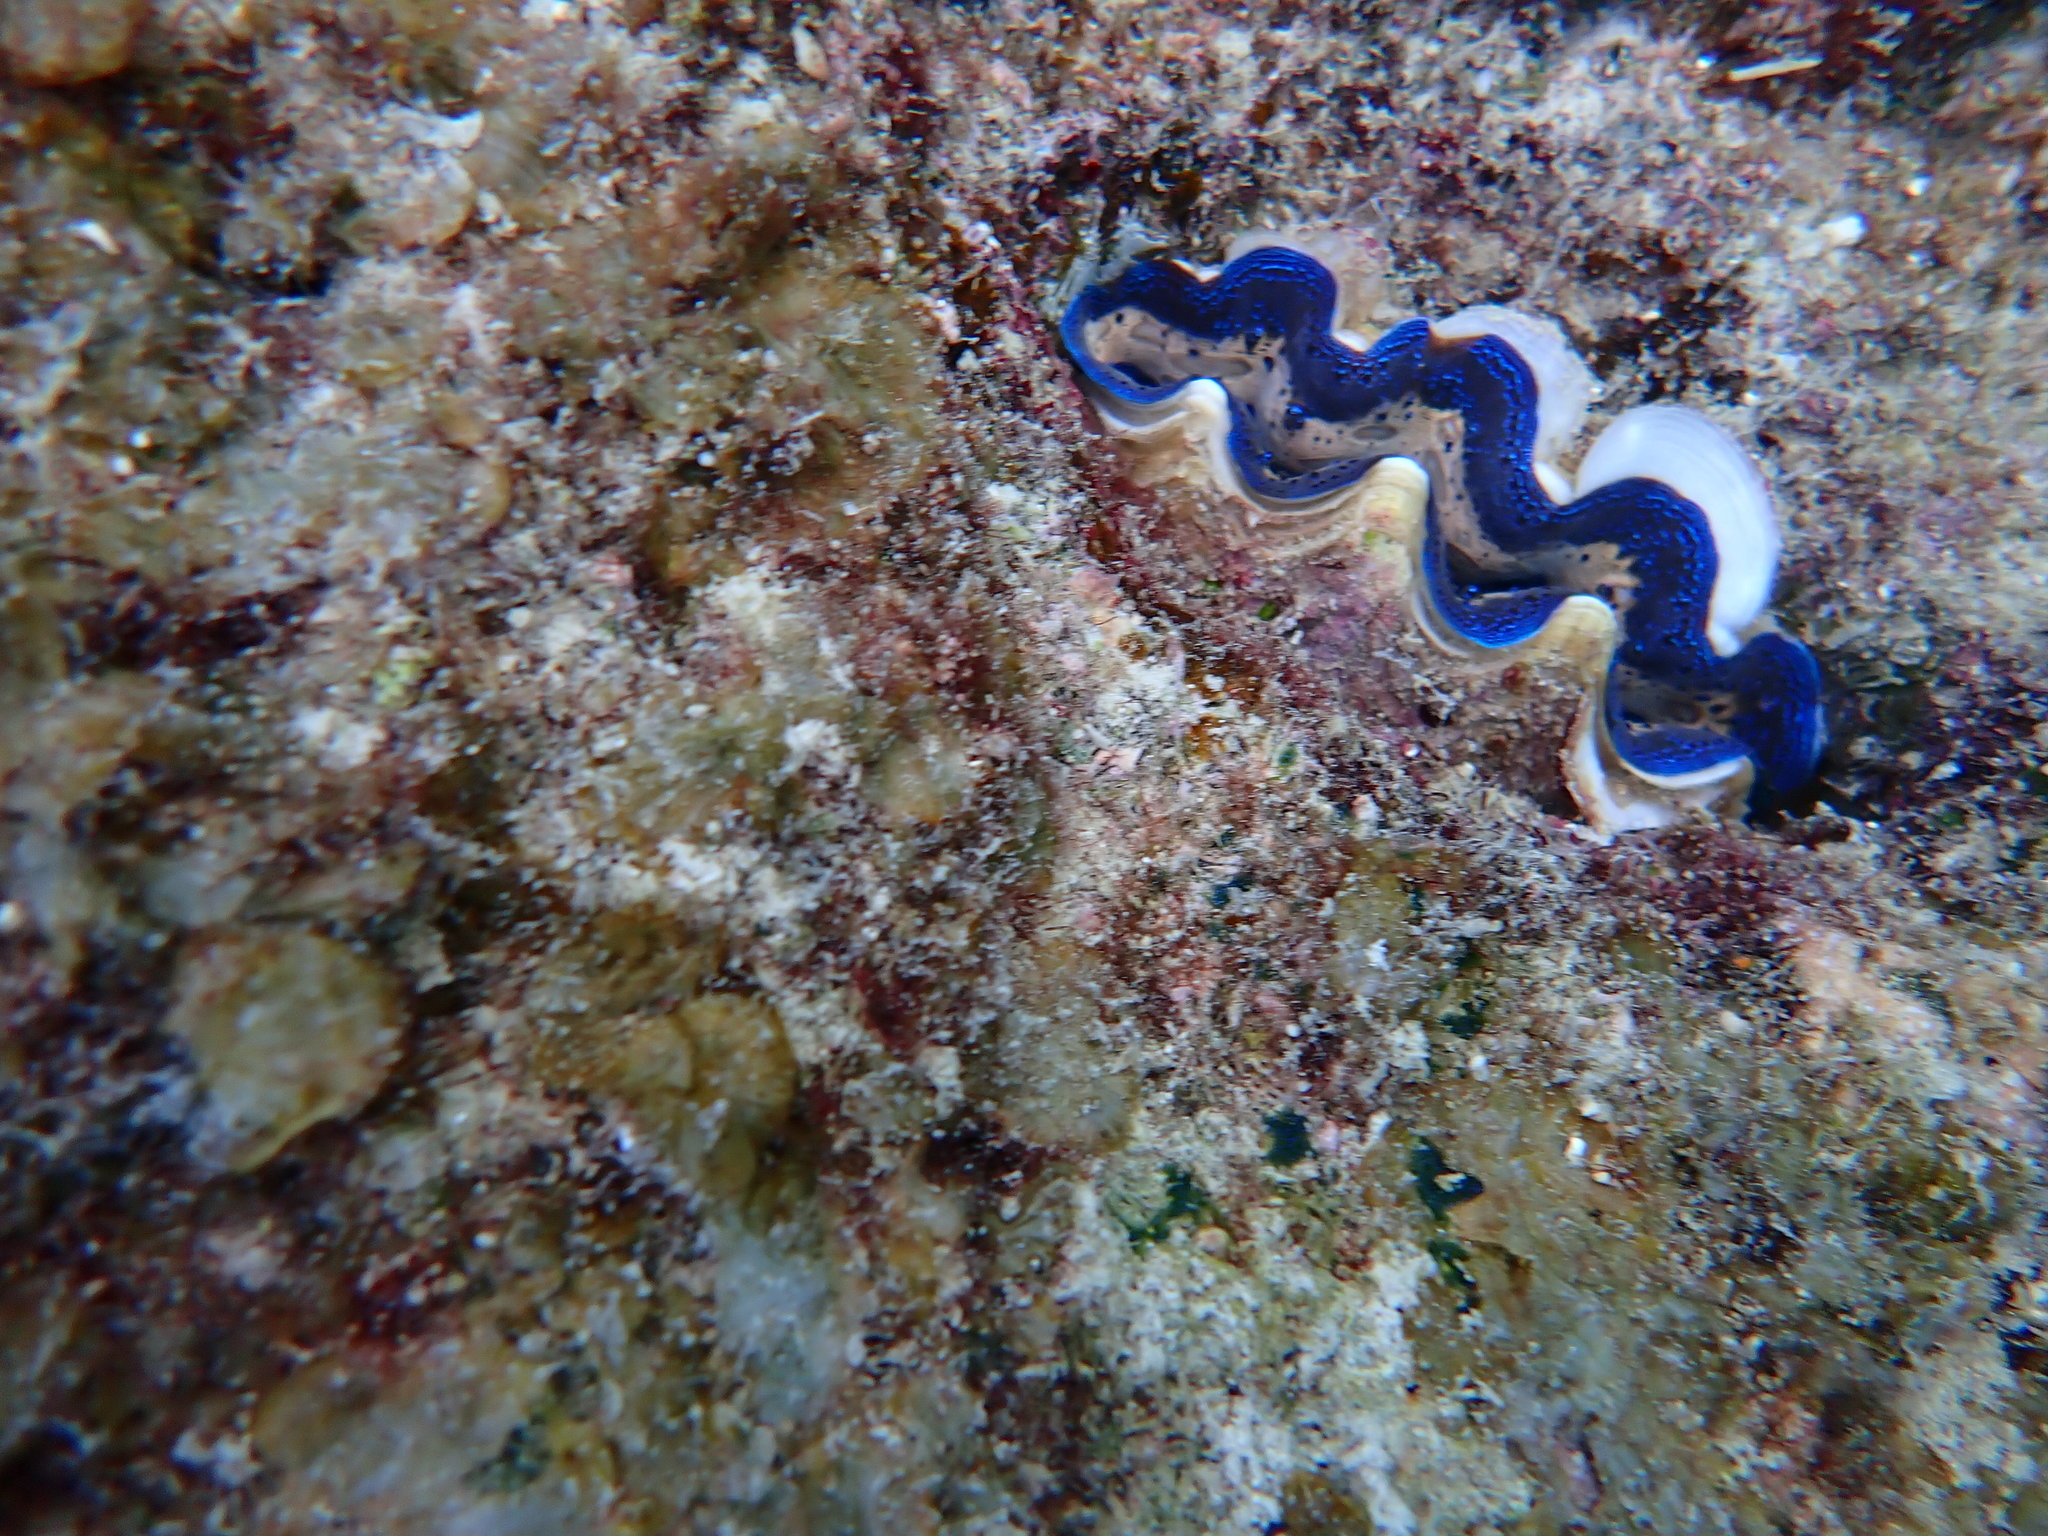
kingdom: Animalia
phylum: Mollusca
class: Bivalvia
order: Cardiida
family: Cardiidae
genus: Tridacna
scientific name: Tridacna crocea
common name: Boring clam
